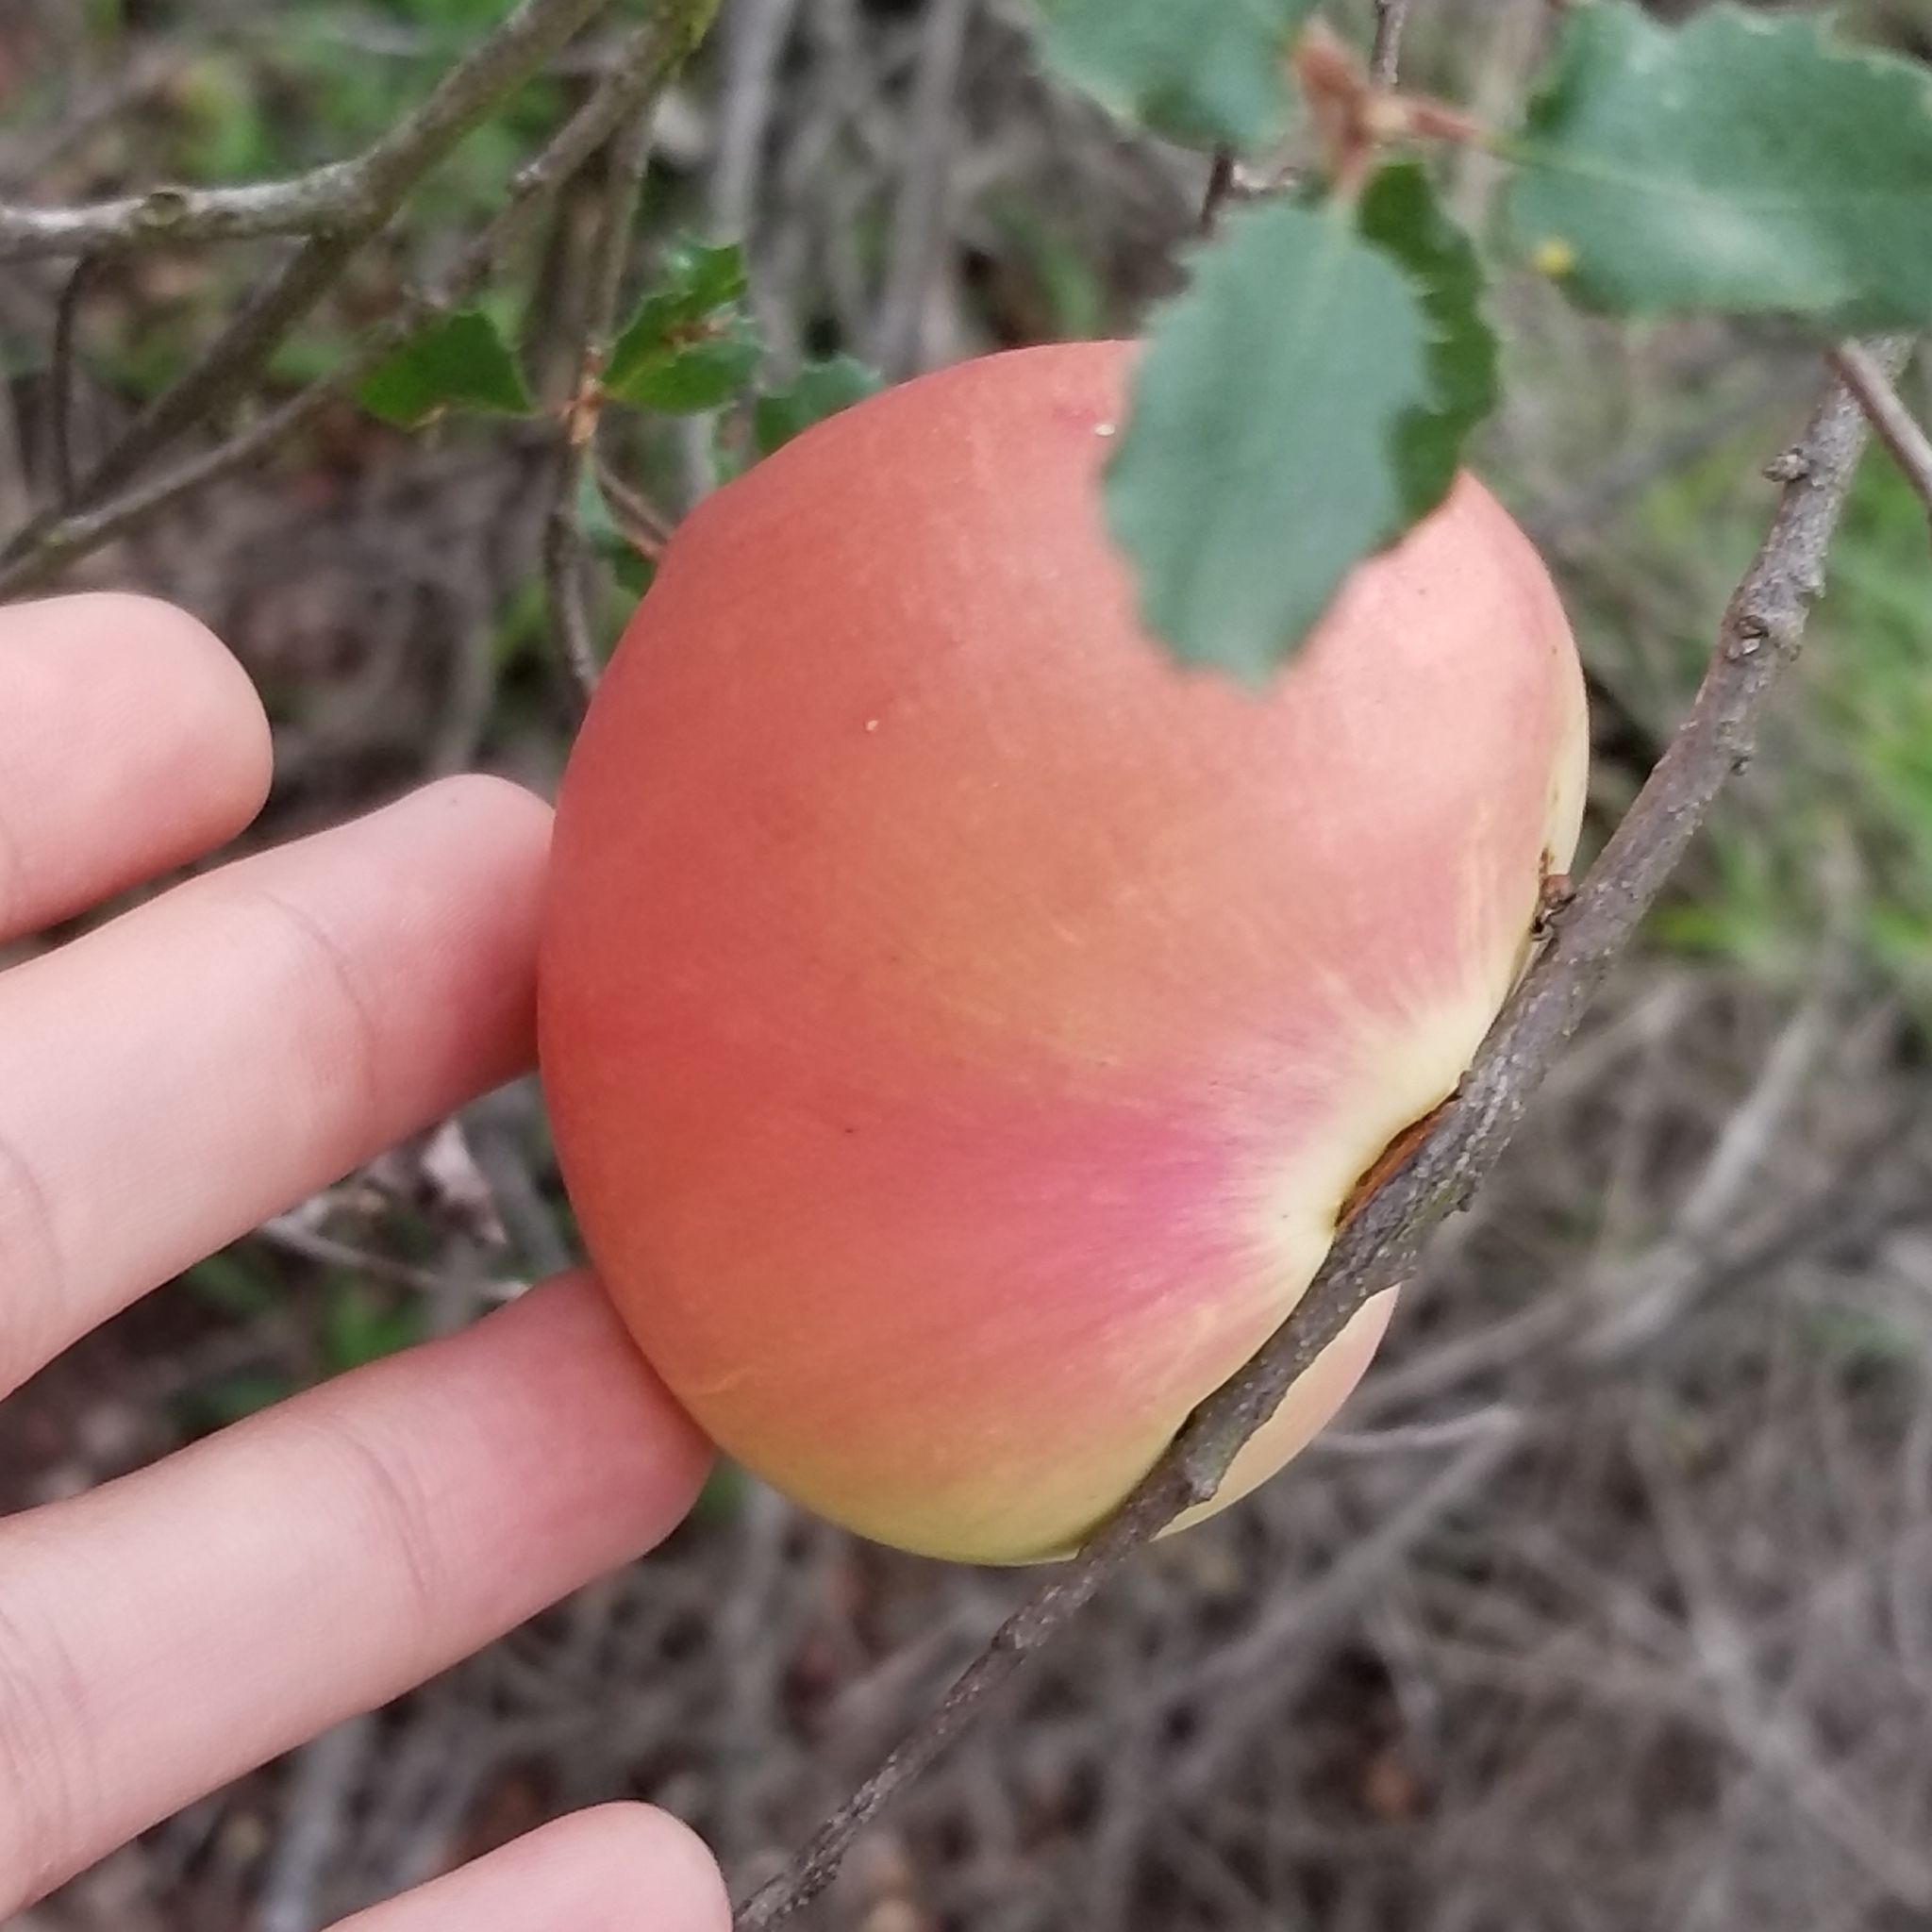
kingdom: Animalia
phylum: Arthropoda
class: Insecta
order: Hymenoptera
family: Cynipidae
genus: Andricus
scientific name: Andricus quercuscalifornicus
